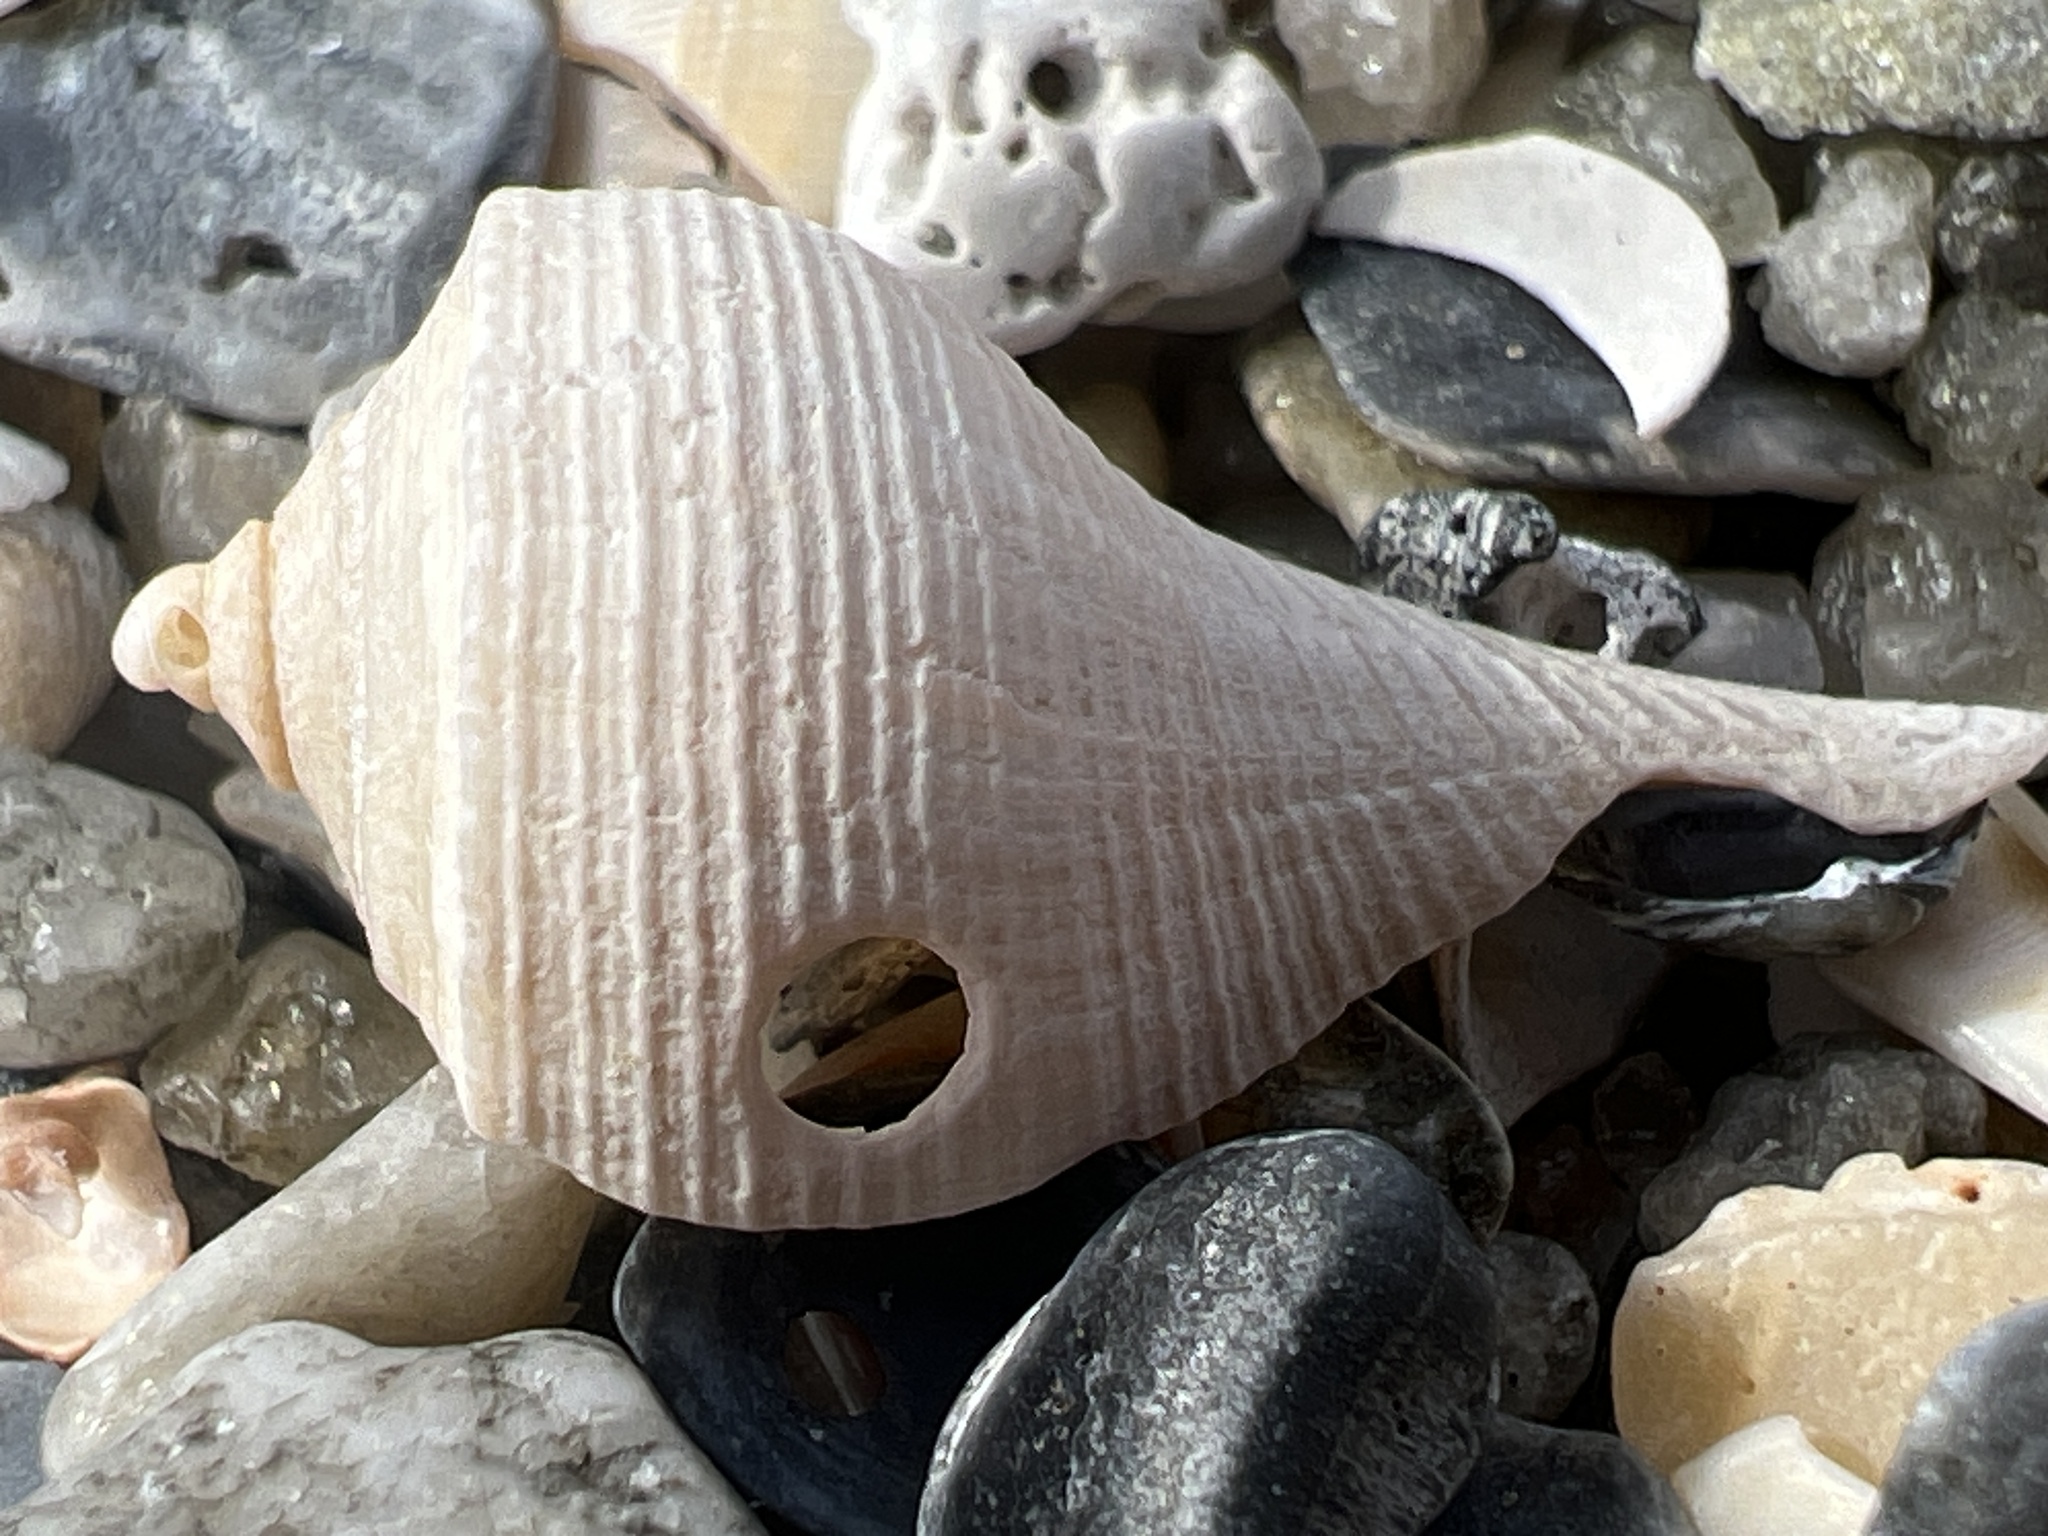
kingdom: Animalia
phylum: Mollusca
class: Gastropoda
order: Neogastropoda
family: Busyconidae
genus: Busycotypus
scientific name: Busycotypus canaliculatus
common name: Channeled whelk
